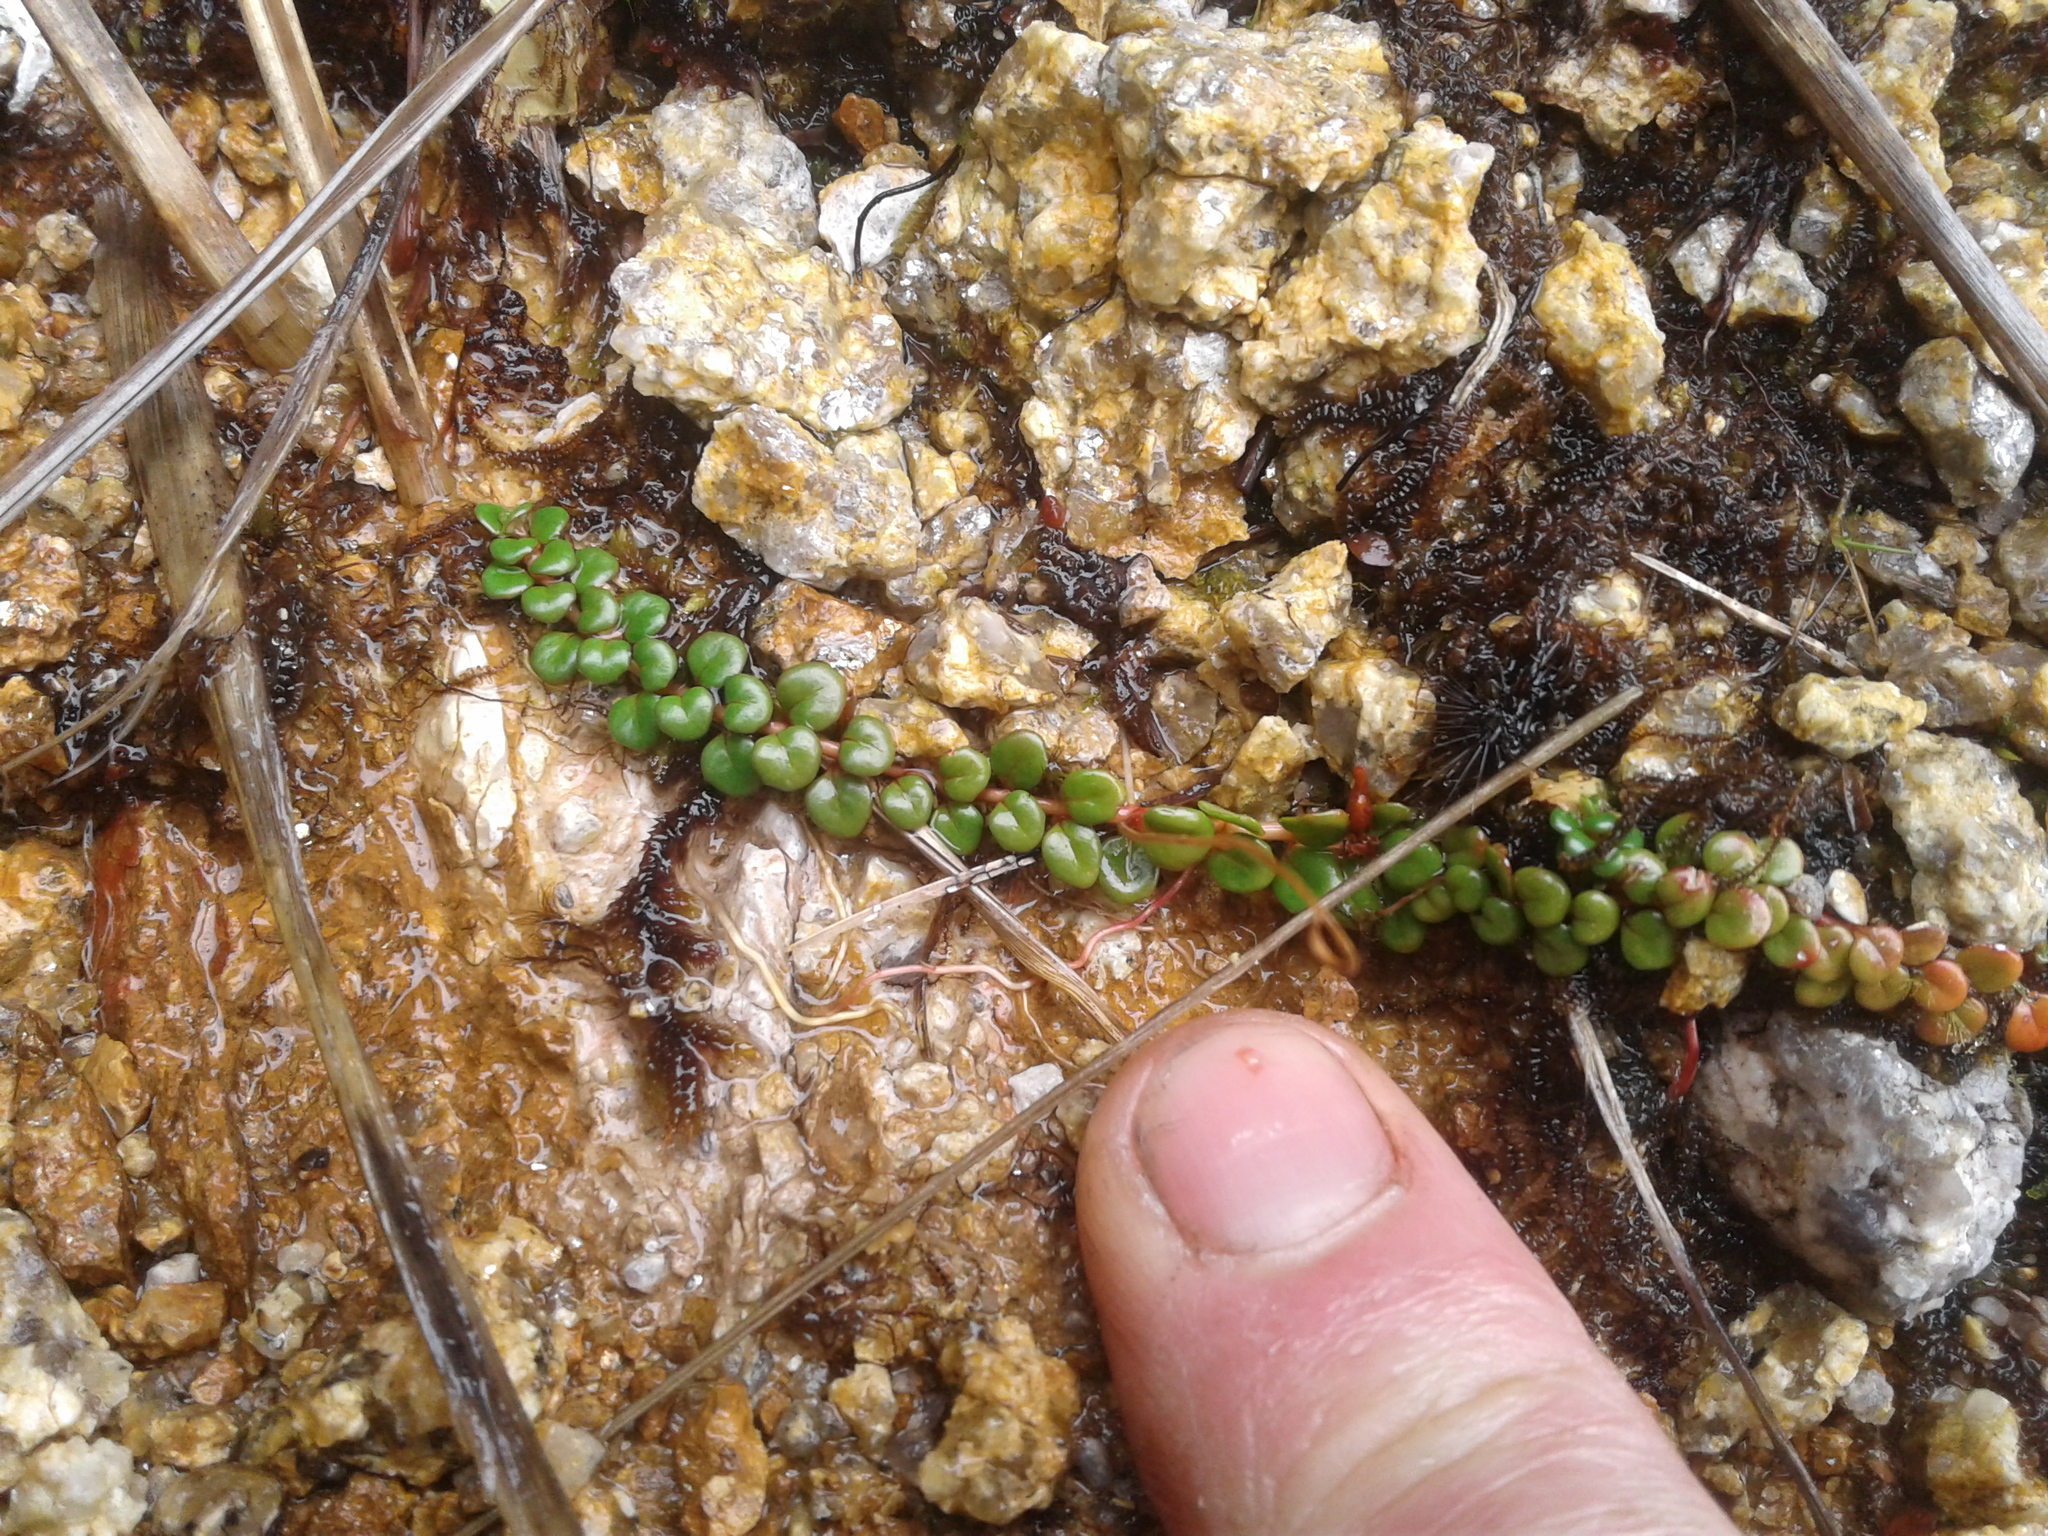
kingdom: Plantae
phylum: Tracheophyta
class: Magnoliopsida
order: Myrtales
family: Onagraceae
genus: Epilobium
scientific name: Epilobium pernitens
